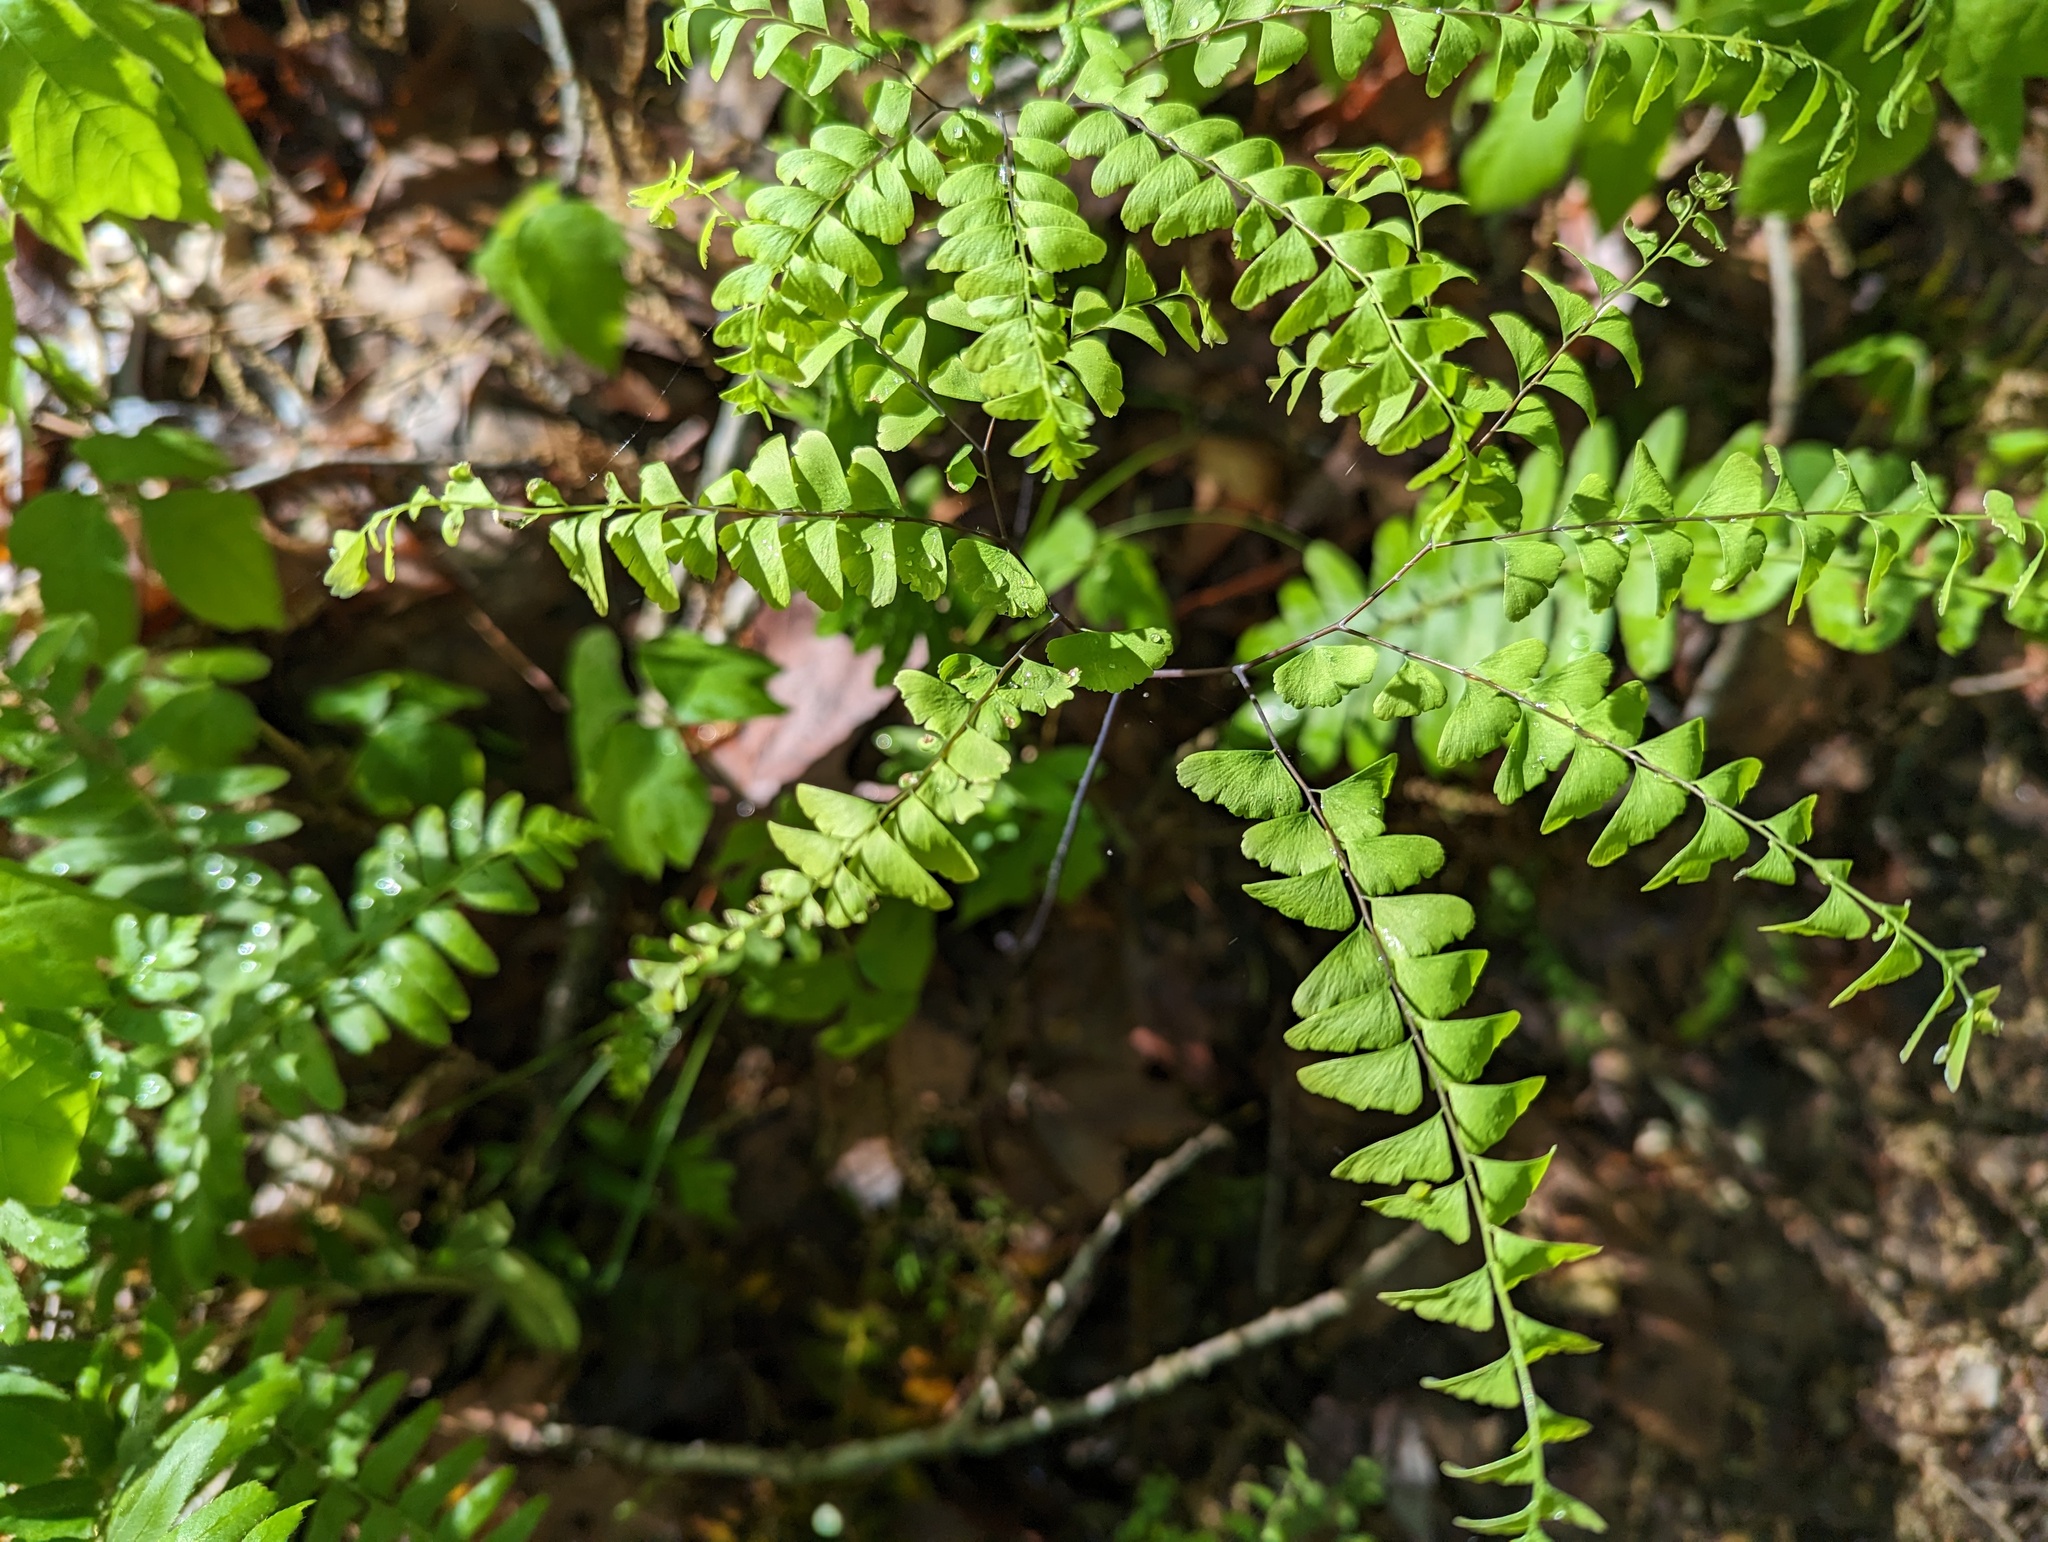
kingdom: Plantae
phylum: Tracheophyta
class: Polypodiopsida
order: Polypodiales
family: Pteridaceae
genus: Adiantum
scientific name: Adiantum pedatum
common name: Five-finger fern
